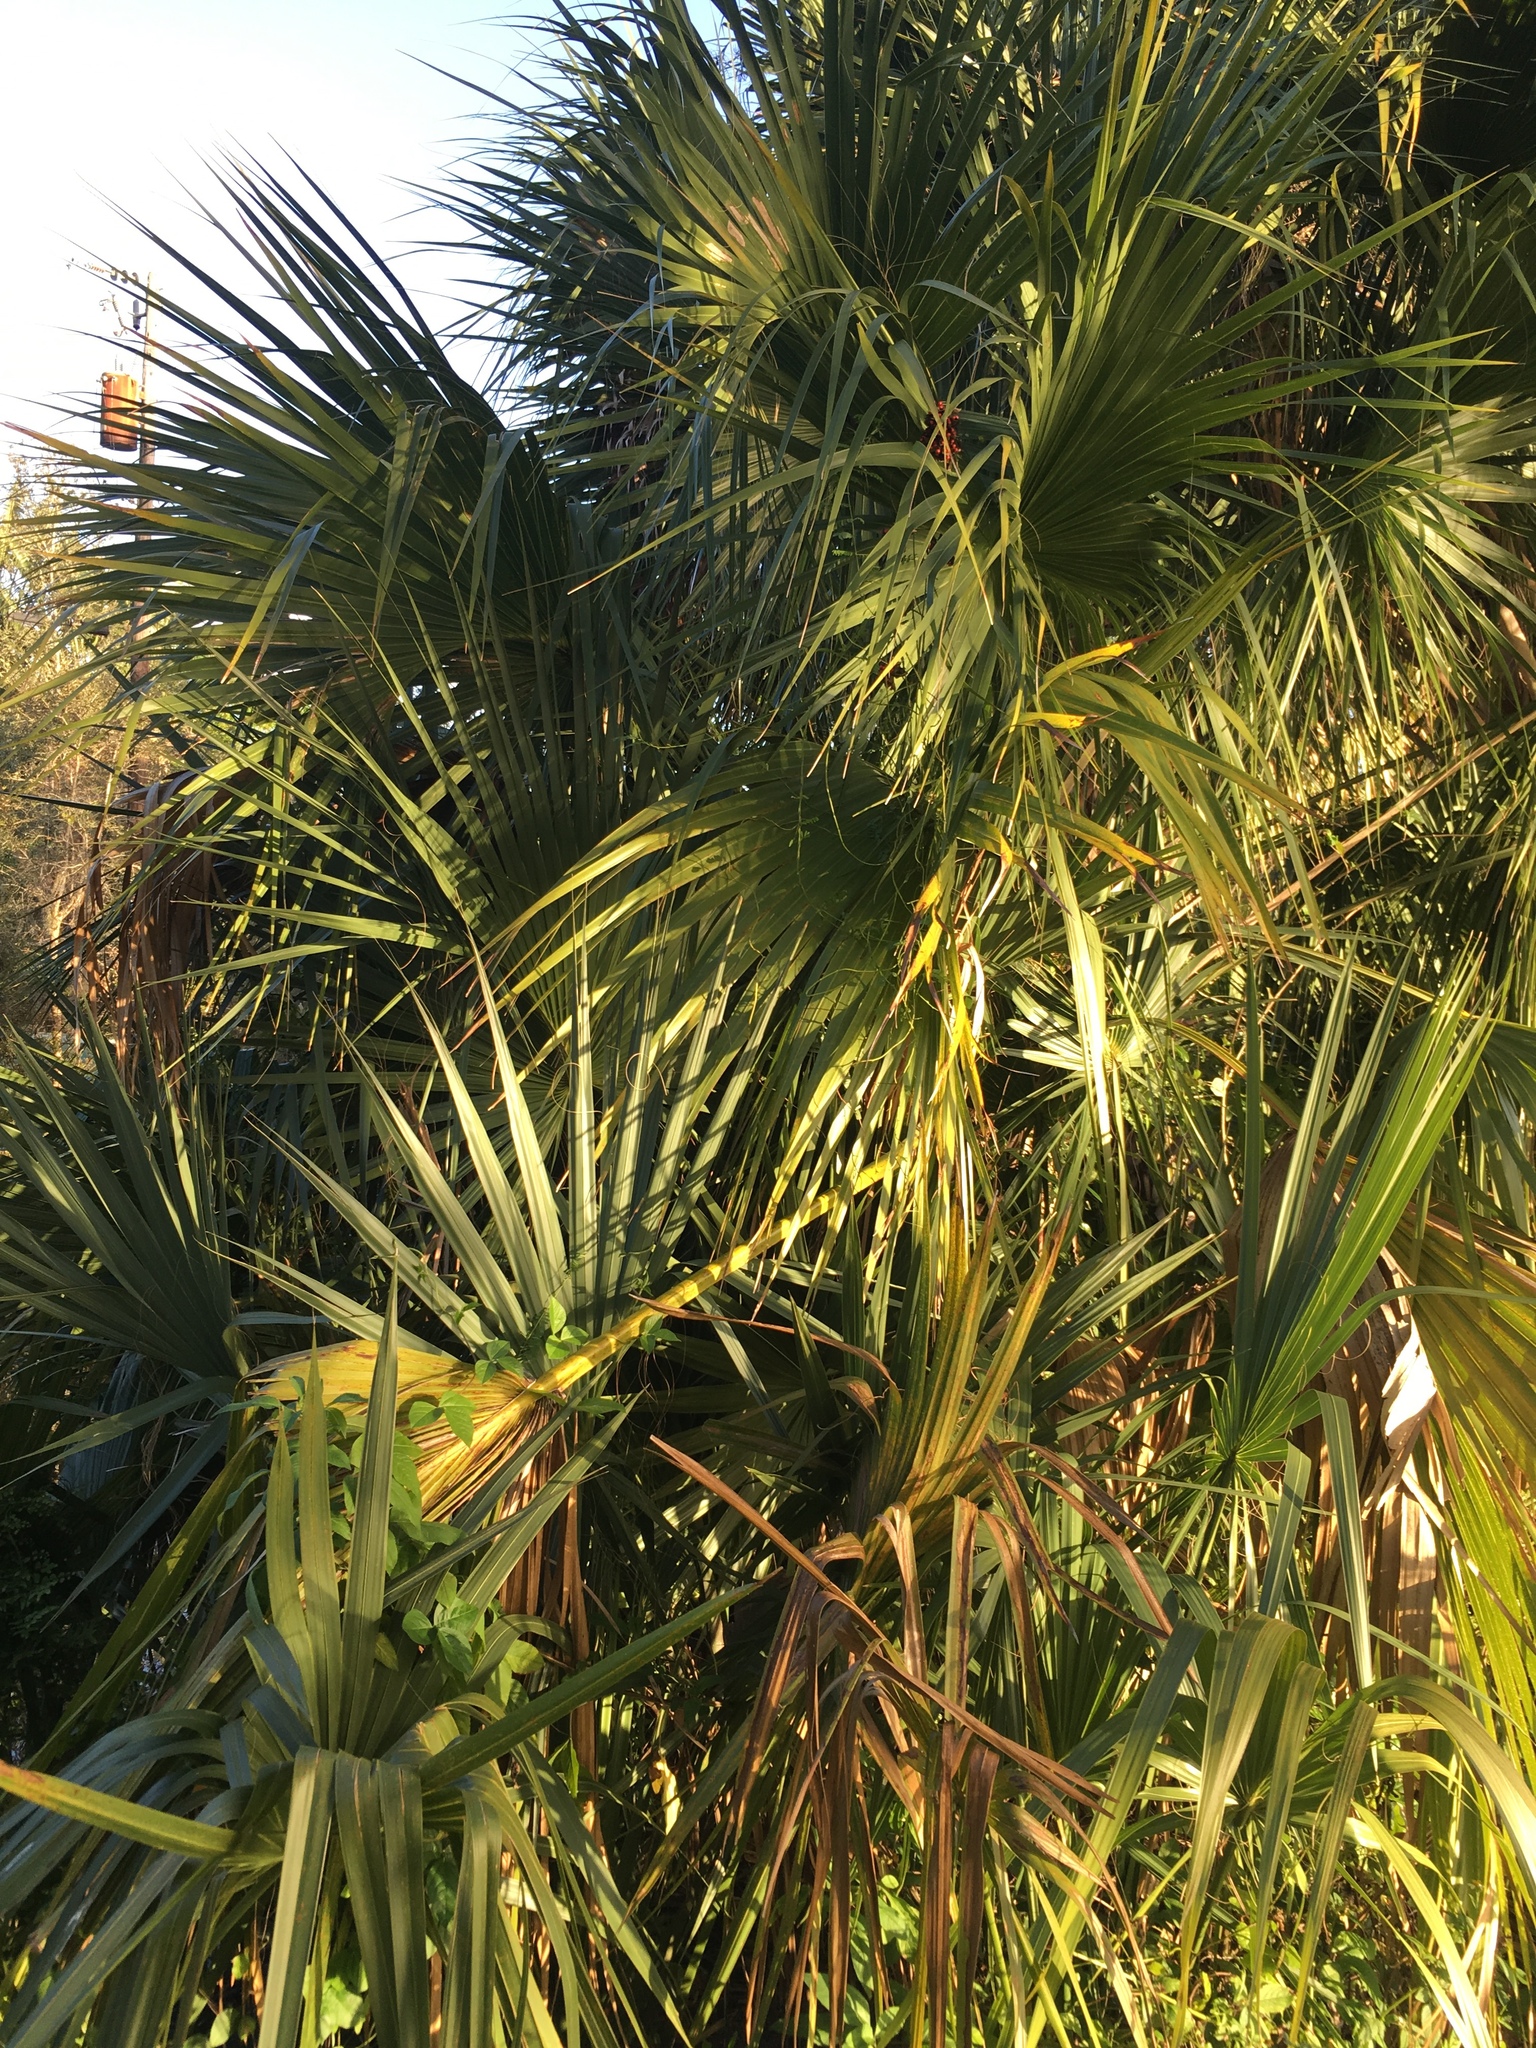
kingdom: Plantae
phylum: Tracheophyta
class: Liliopsida
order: Arecales
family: Arecaceae
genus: Sabal
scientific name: Sabal palmetto
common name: Blue palmetto
